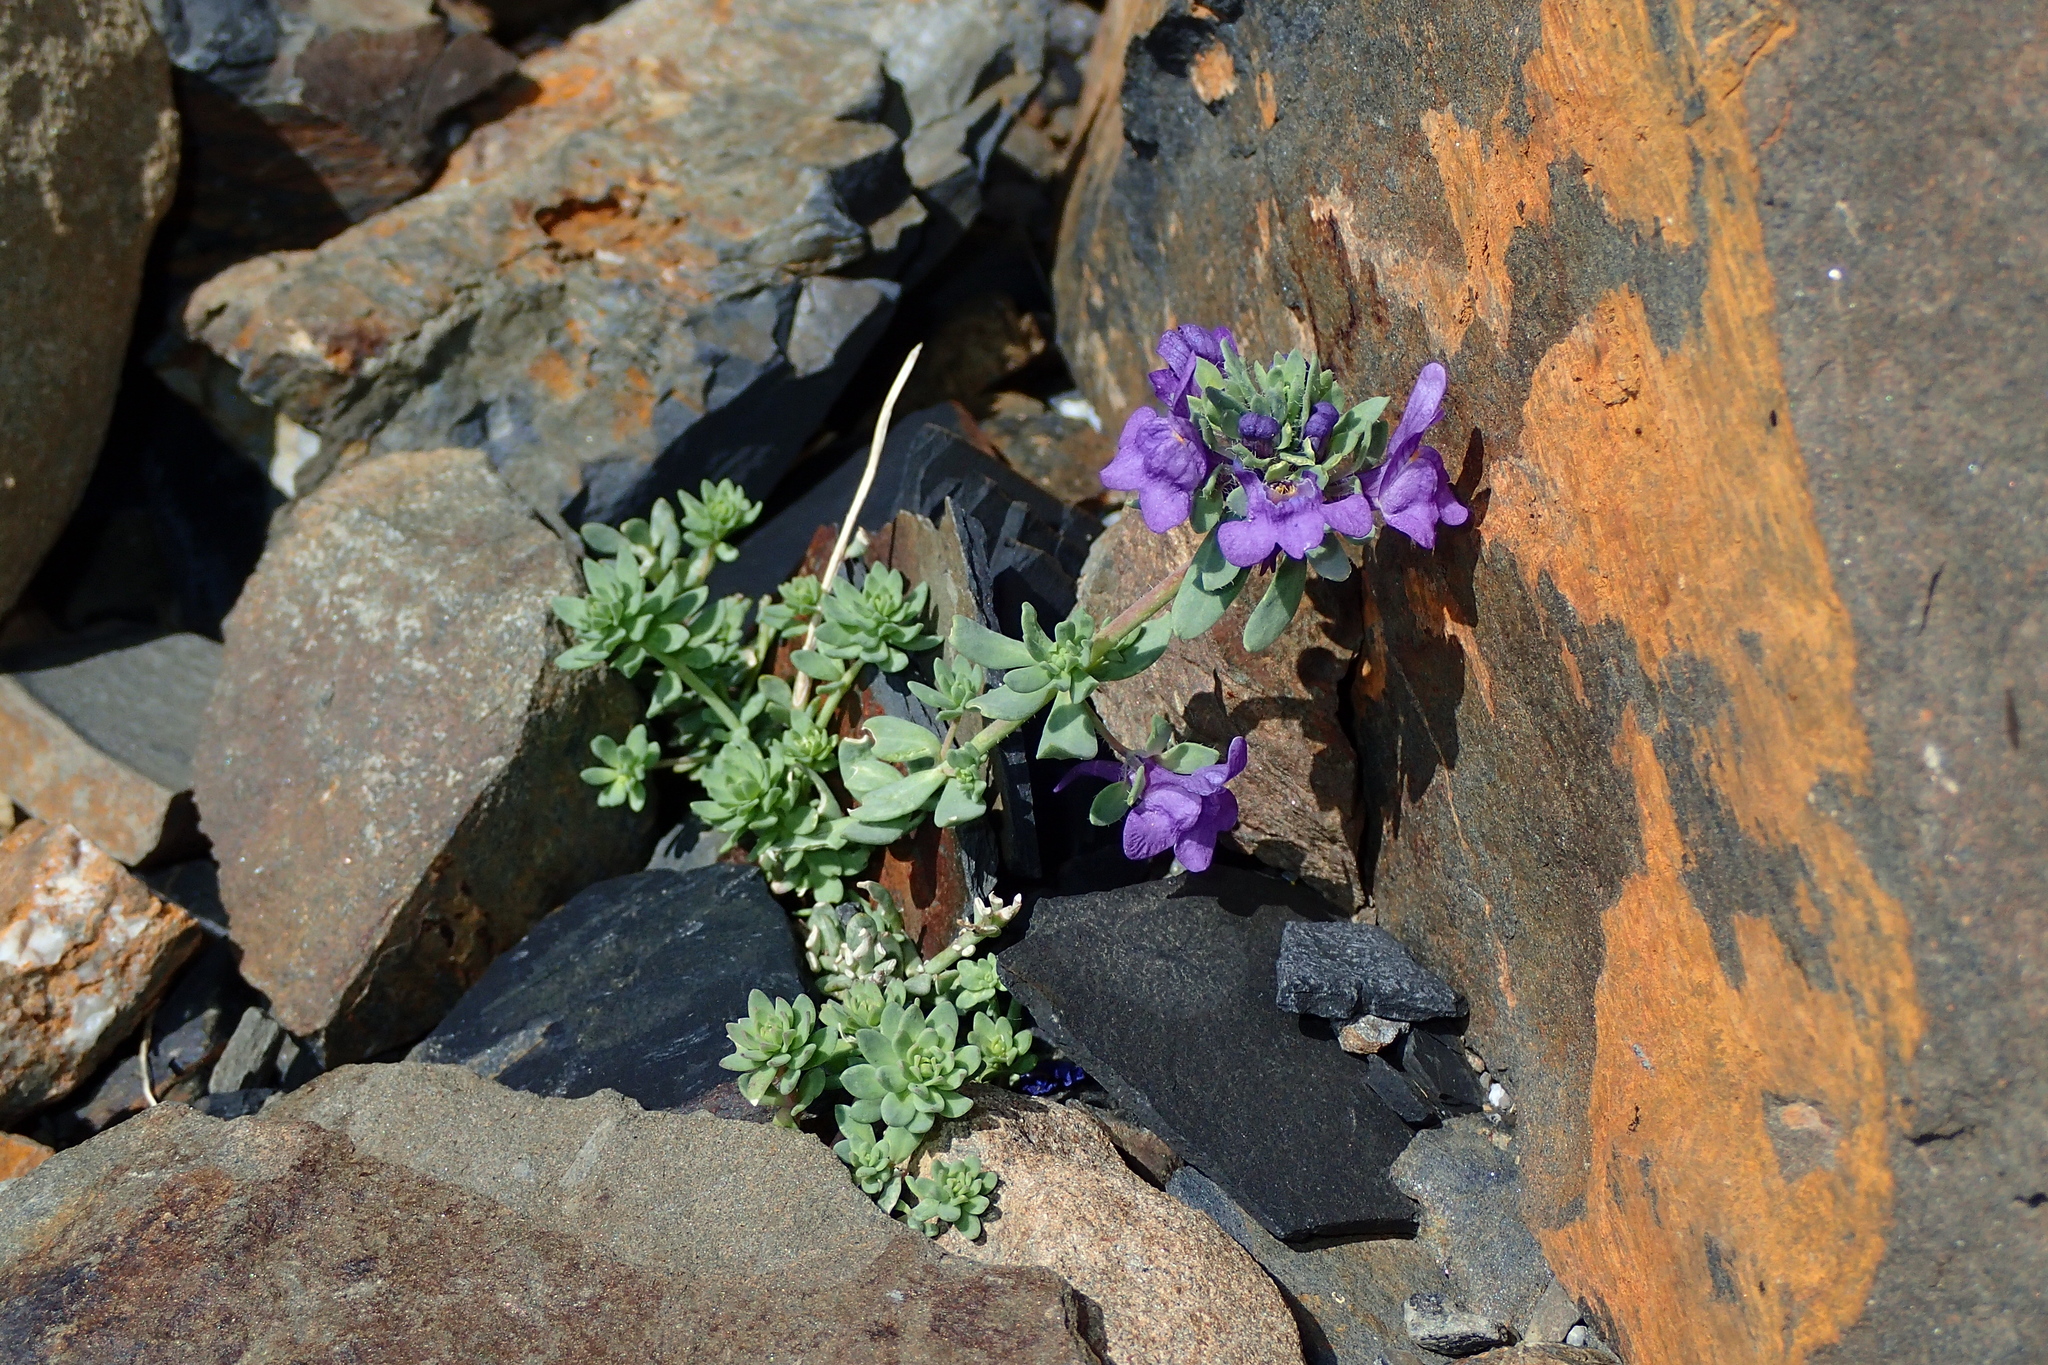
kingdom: Plantae
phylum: Tracheophyta
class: Magnoliopsida
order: Lamiales
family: Plantaginaceae
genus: Linaria
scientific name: Linaria alpina
